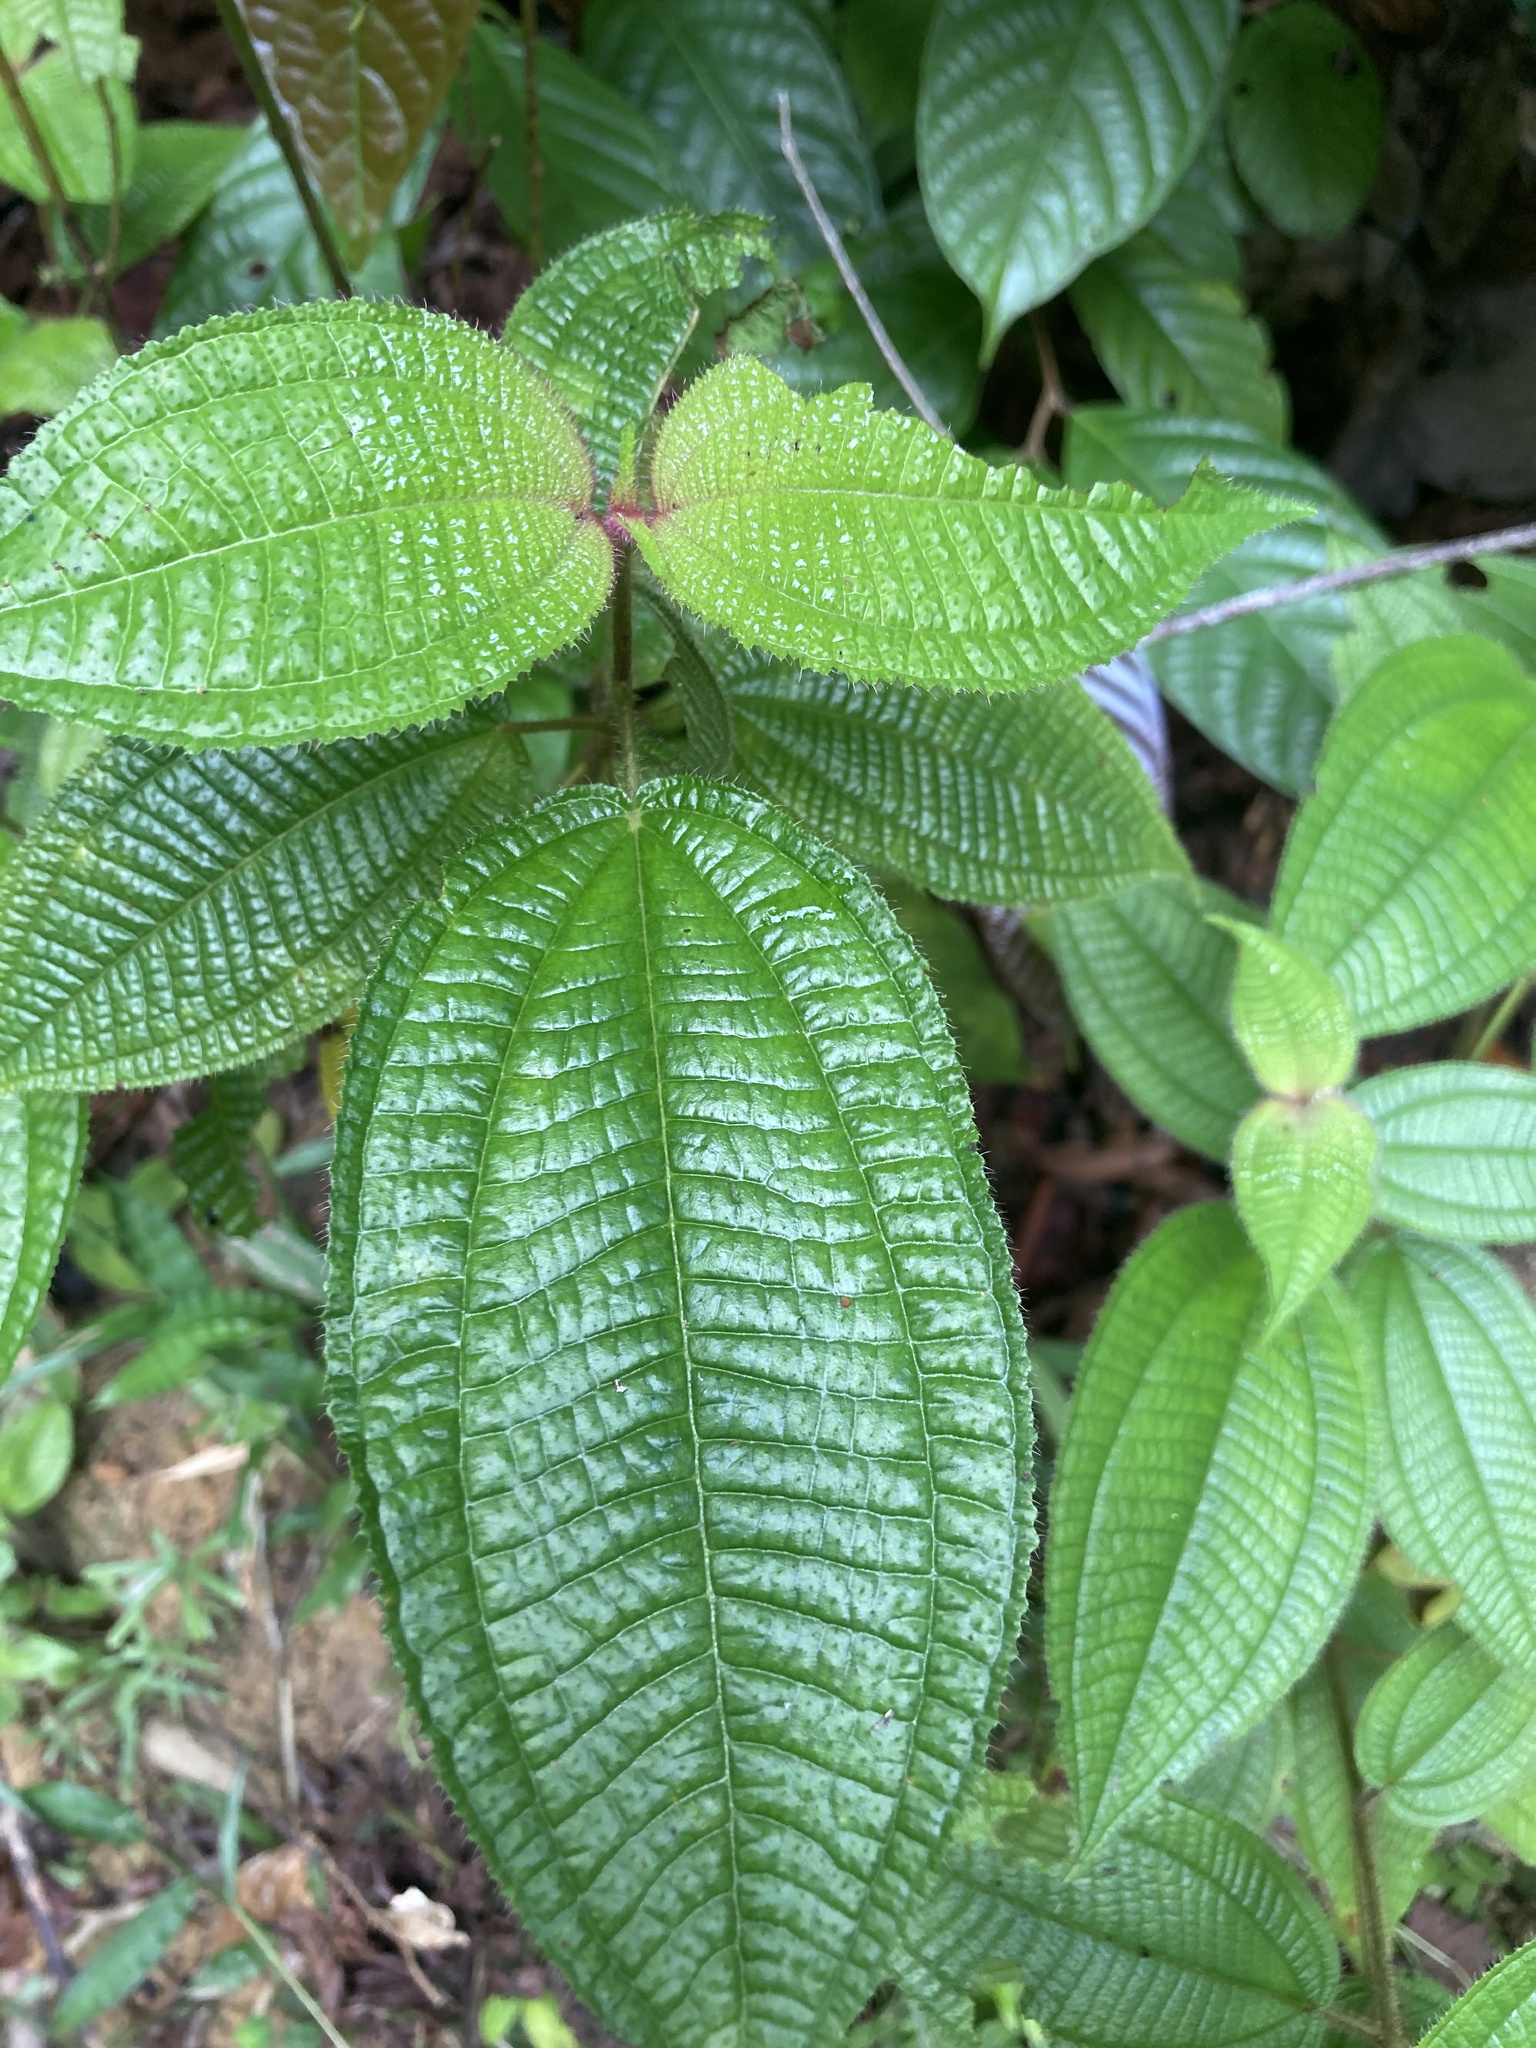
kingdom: Plantae
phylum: Tracheophyta
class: Magnoliopsida
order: Myrtales
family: Melastomataceae
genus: Miconia
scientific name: Miconia crenata
